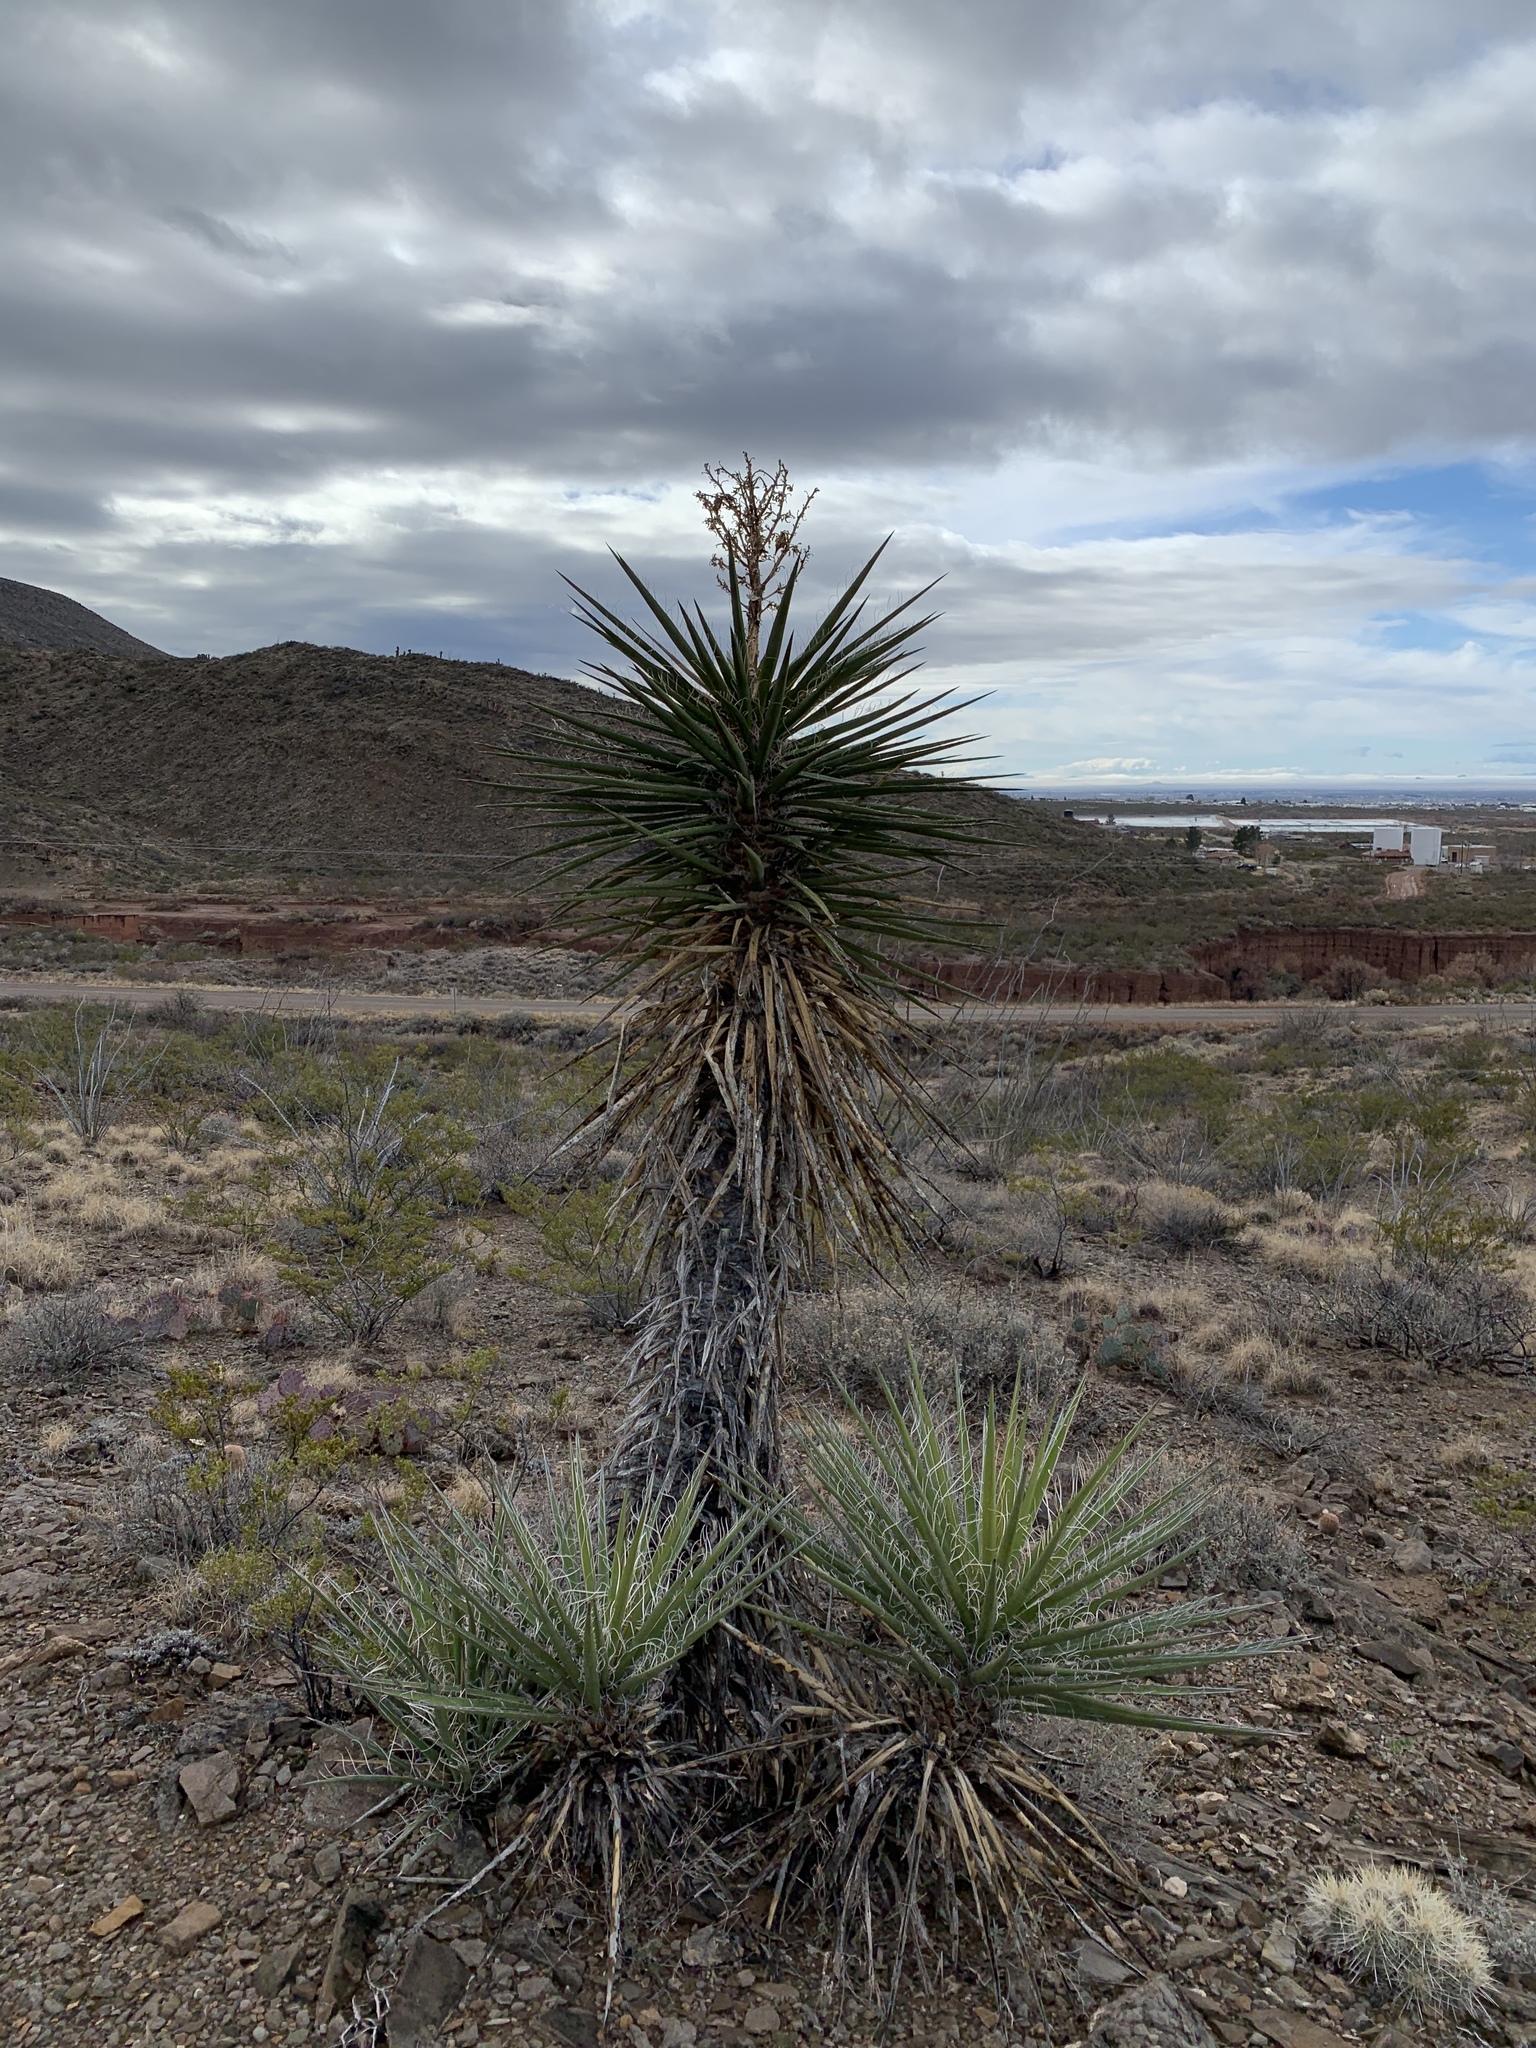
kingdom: Plantae
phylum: Tracheophyta
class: Liliopsida
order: Asparagales
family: Asparagaceae
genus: Yucca
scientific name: Yucca treculiana
